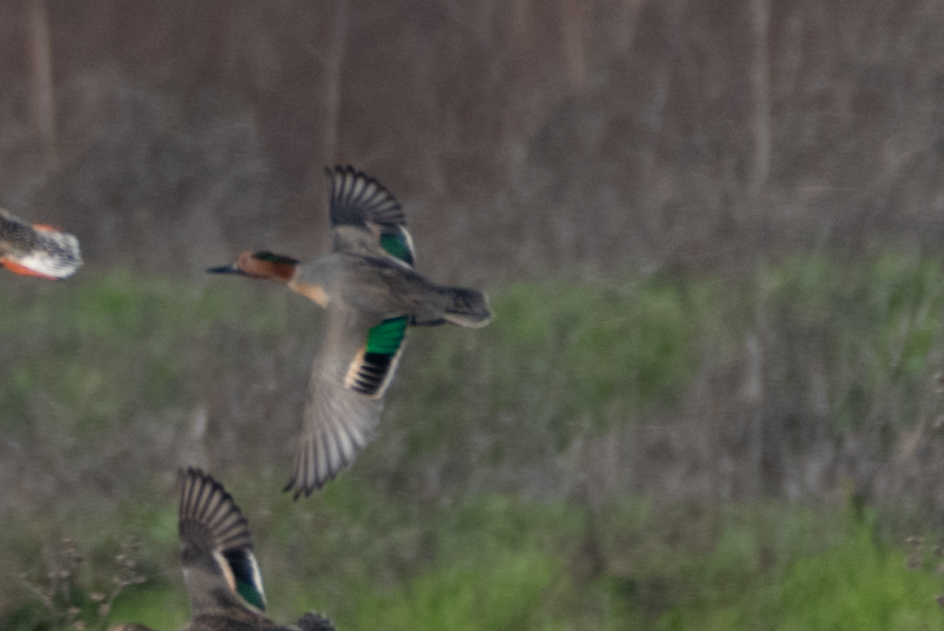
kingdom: Animalia
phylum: Chordata
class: Aves
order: Anseriformes
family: Anatidae
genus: Anas
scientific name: Anas crecca
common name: Eurasian teal
